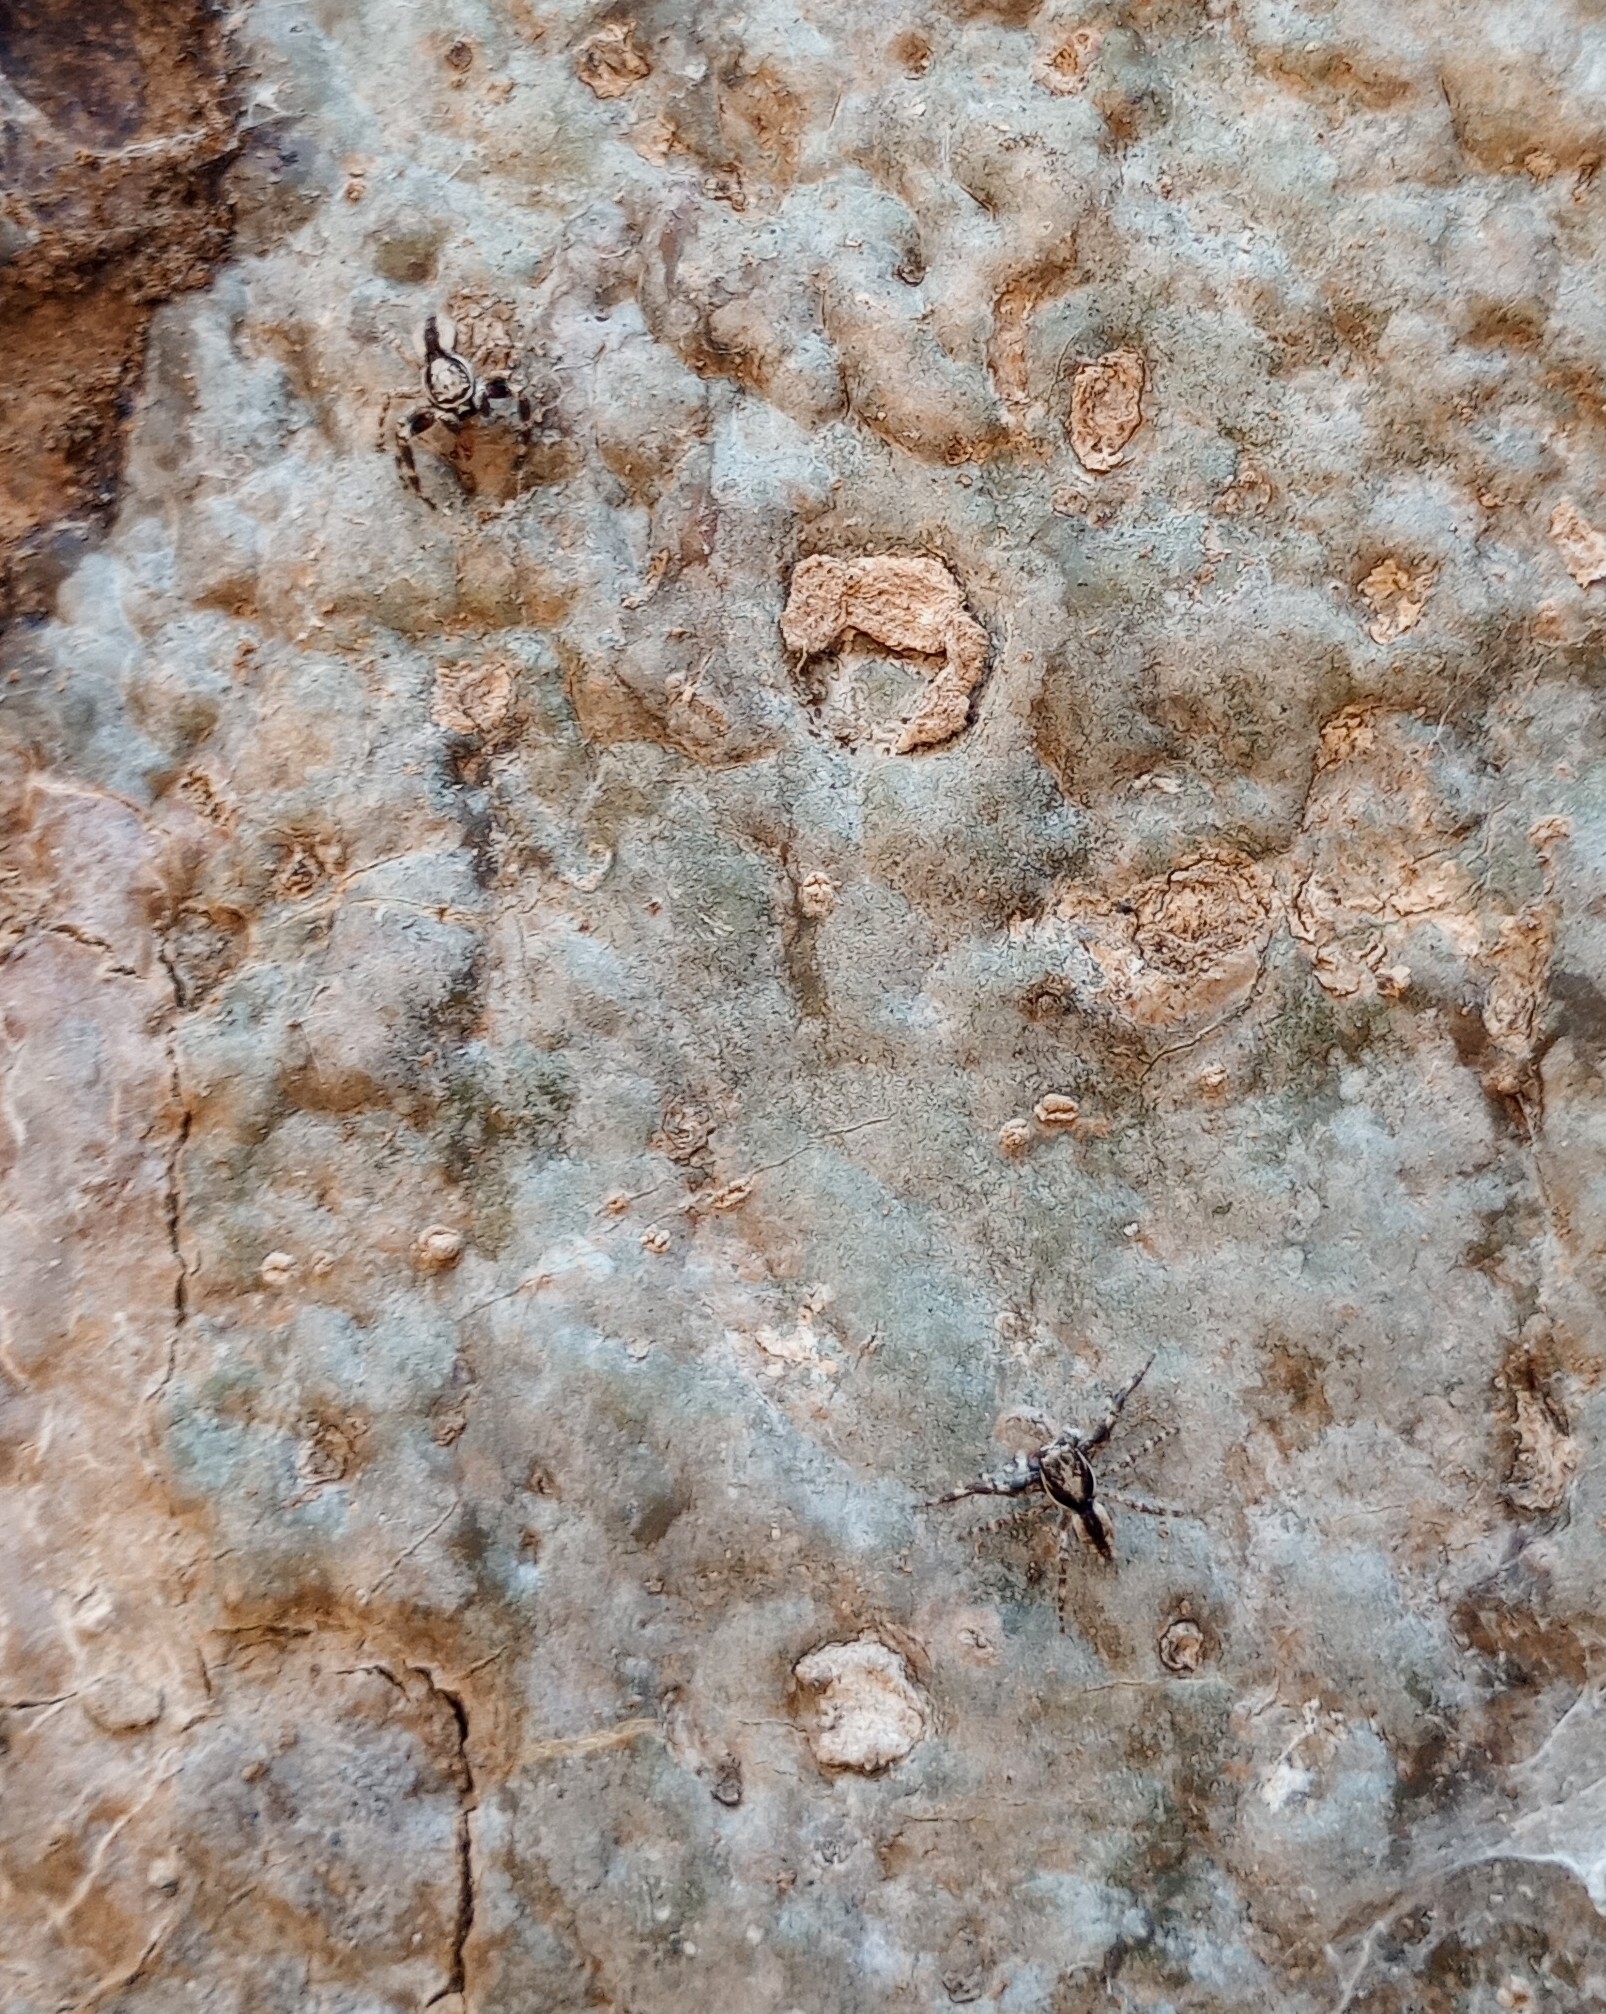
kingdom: Animalia
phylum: Arthropoda
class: Arachnida
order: Araneae
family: Salticidae
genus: Menemerus
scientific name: Menemerus bivittatus
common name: Gray wall jumper
